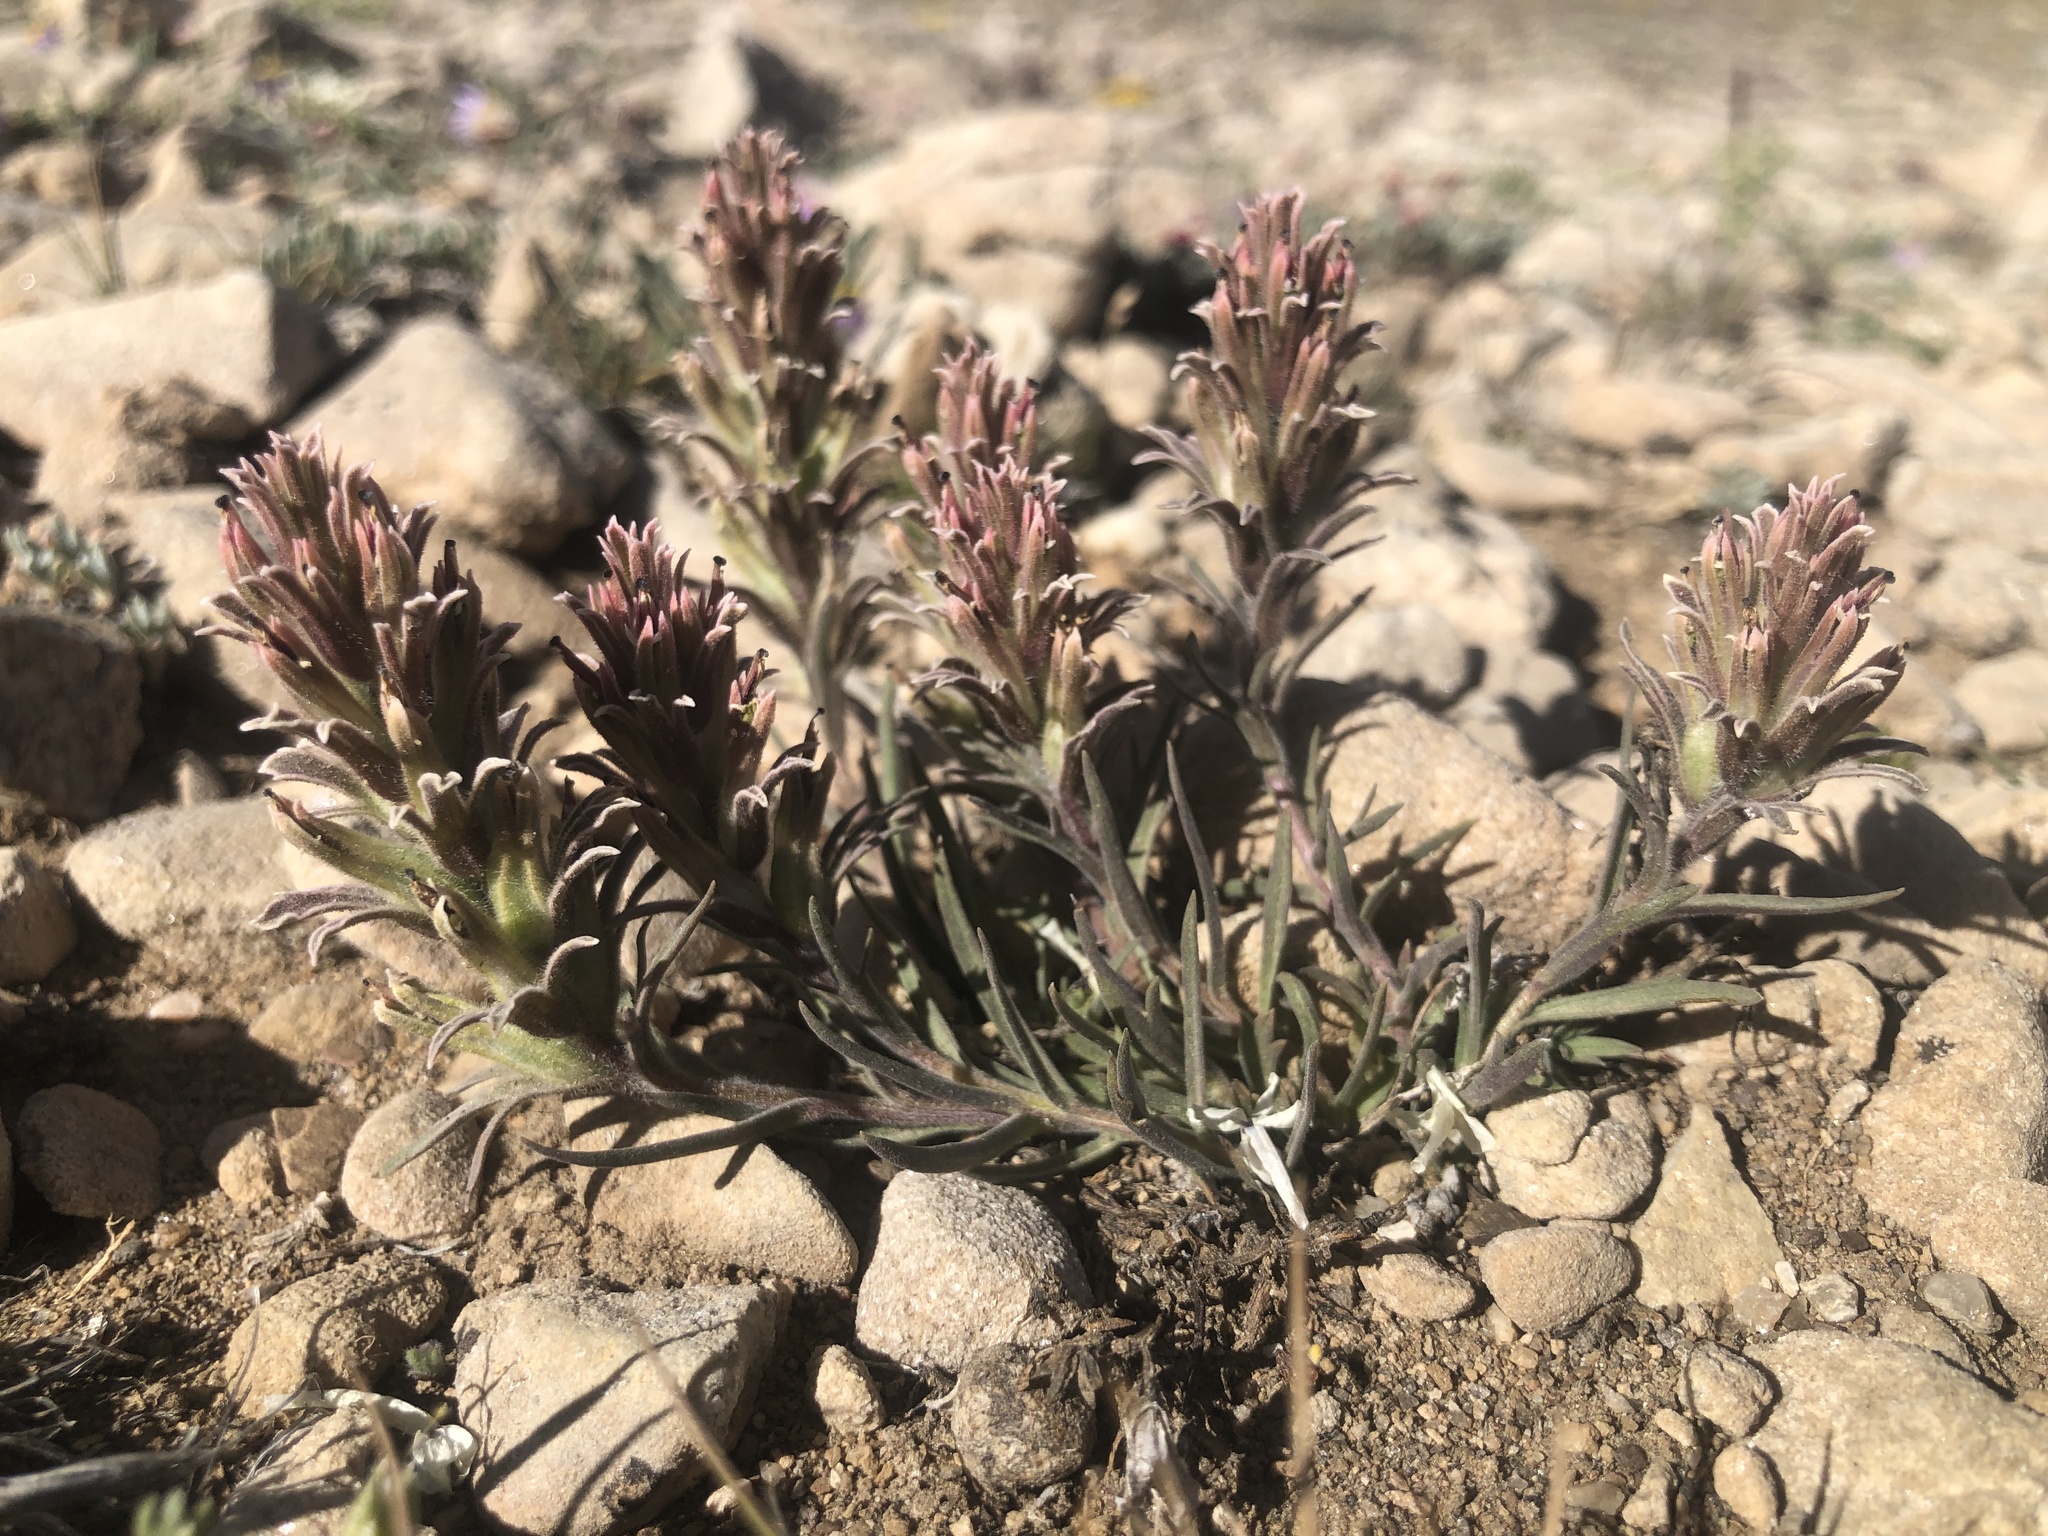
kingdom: Plantae
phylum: Tracheophyta
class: Magnoliopsida
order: Lamiales
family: Orobanchaceae
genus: Castilleja
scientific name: Castilleja nana
